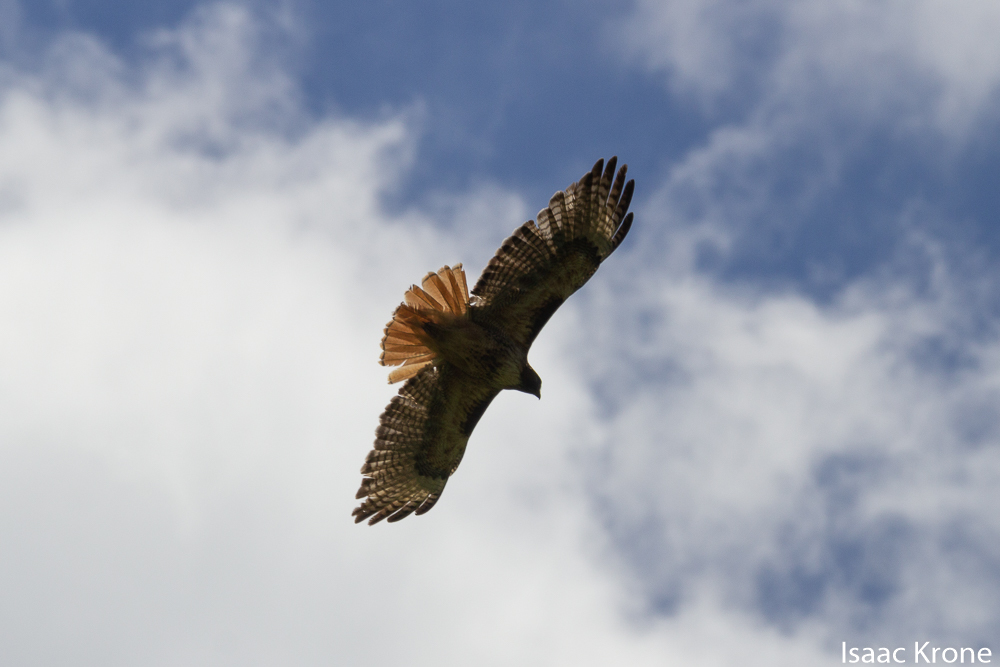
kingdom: Animalia
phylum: Chordata
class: Aves
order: Accipitriformes
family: Accipitridae
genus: Buteo
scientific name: Buteo jamaicensis
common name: Red-tailed hawk
